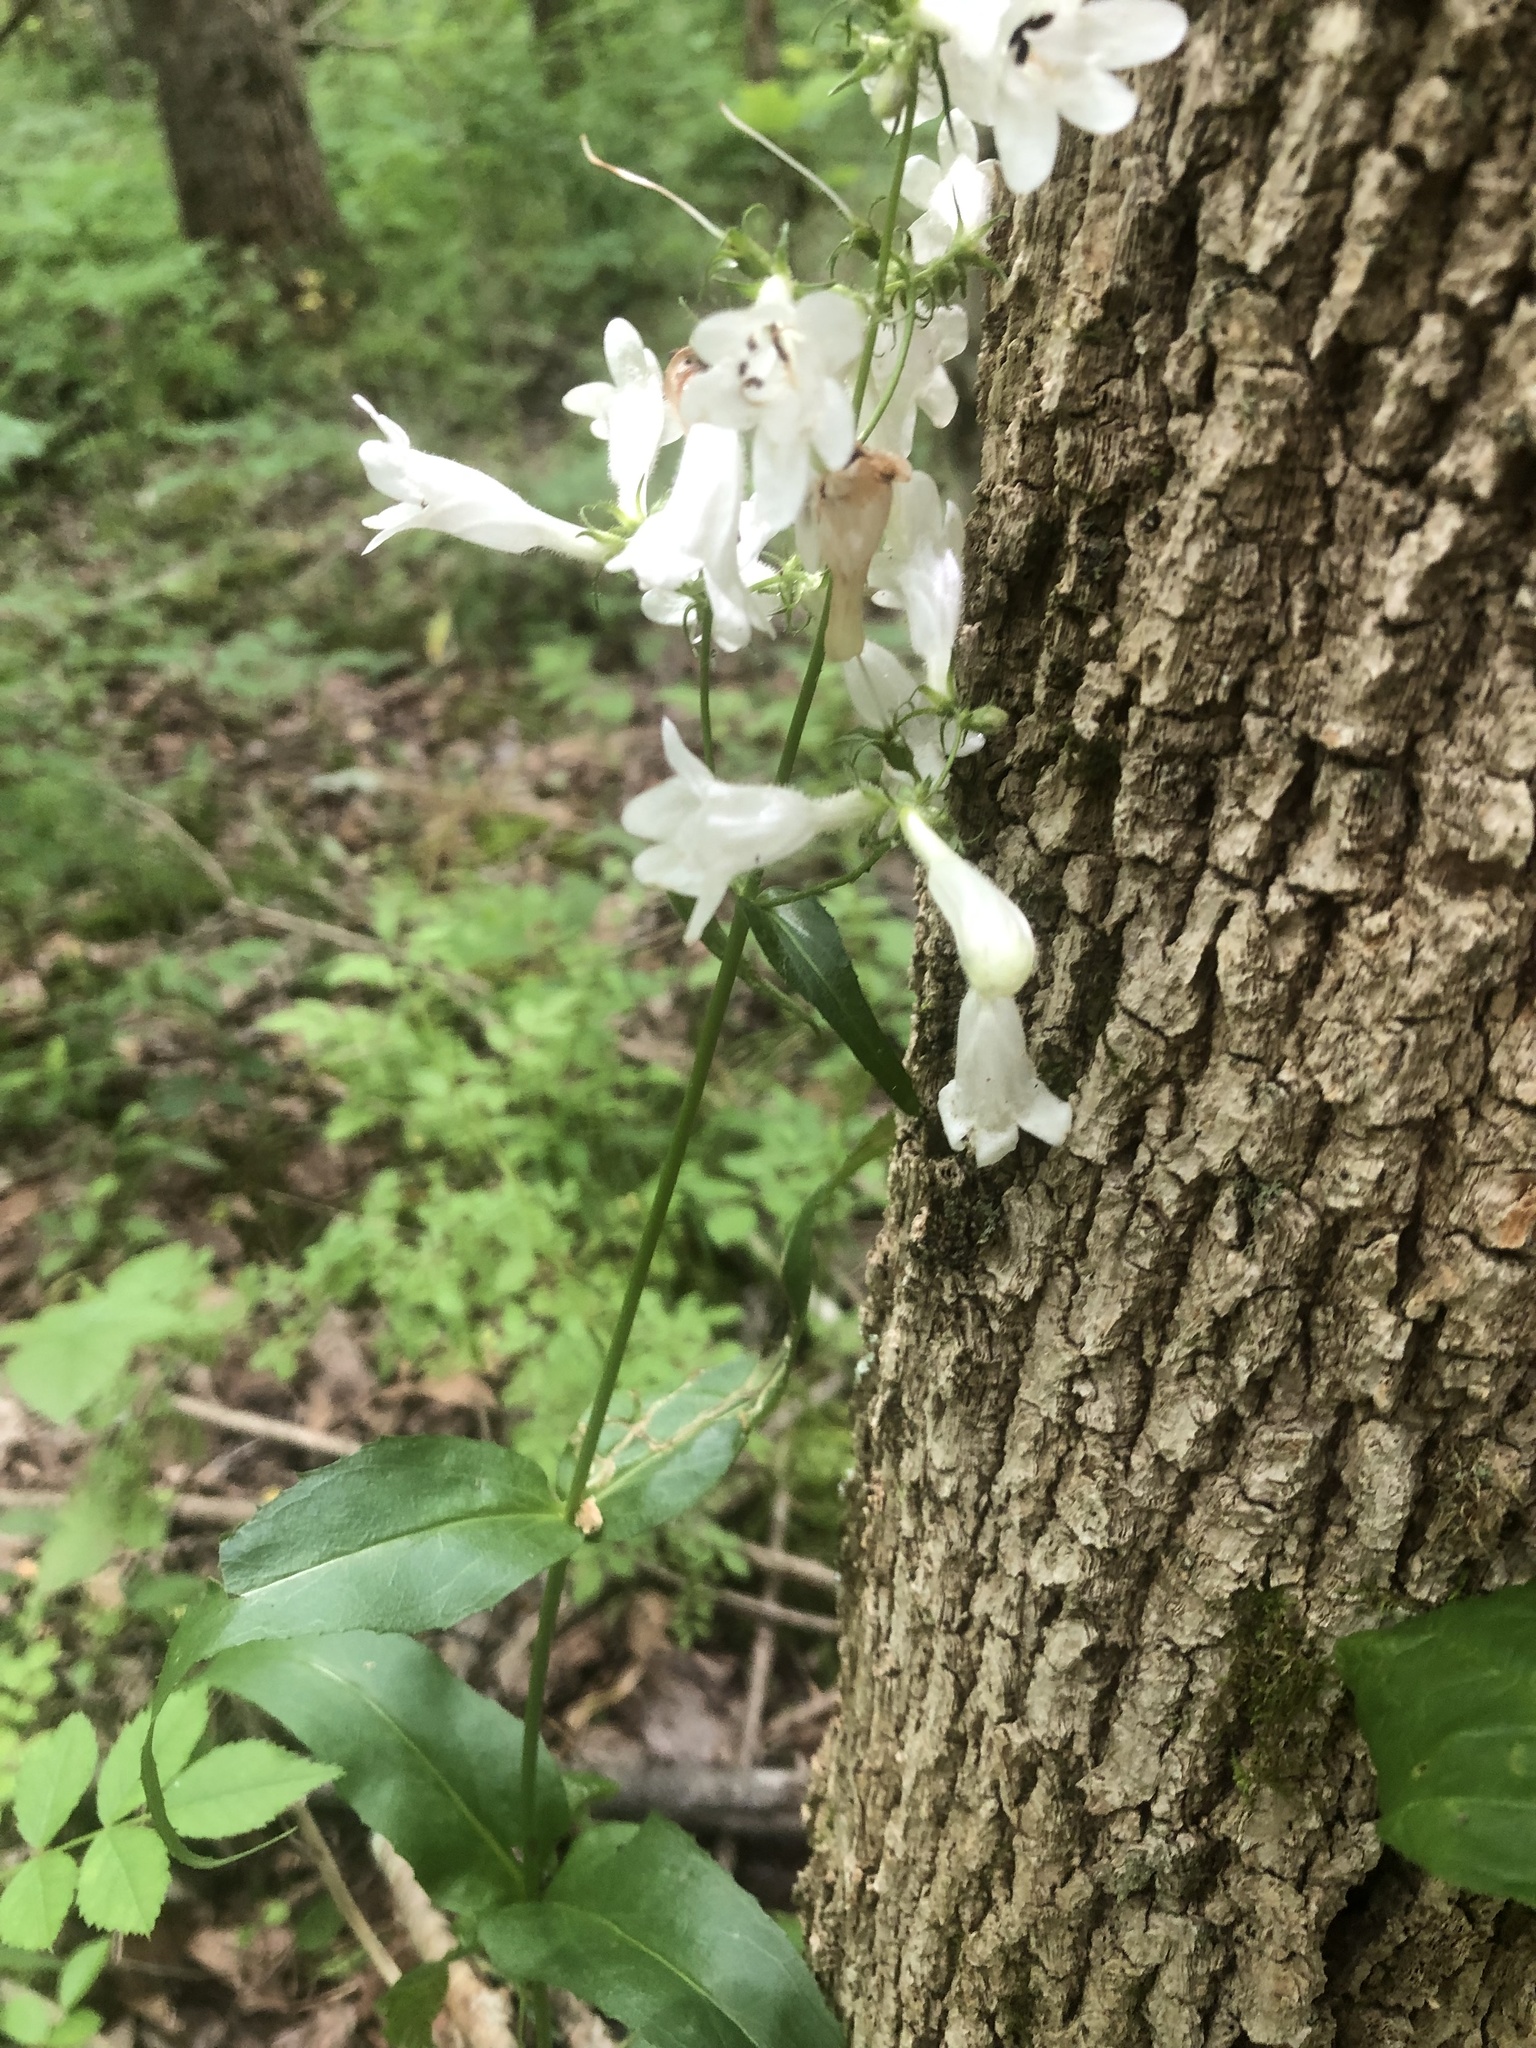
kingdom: Plantae
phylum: Tracheophyta
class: Magnoliopsida
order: Lamiales
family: Plantaginaceae
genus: Penstemon
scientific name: Penstemon digitalis
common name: Foxglove beardtongue
